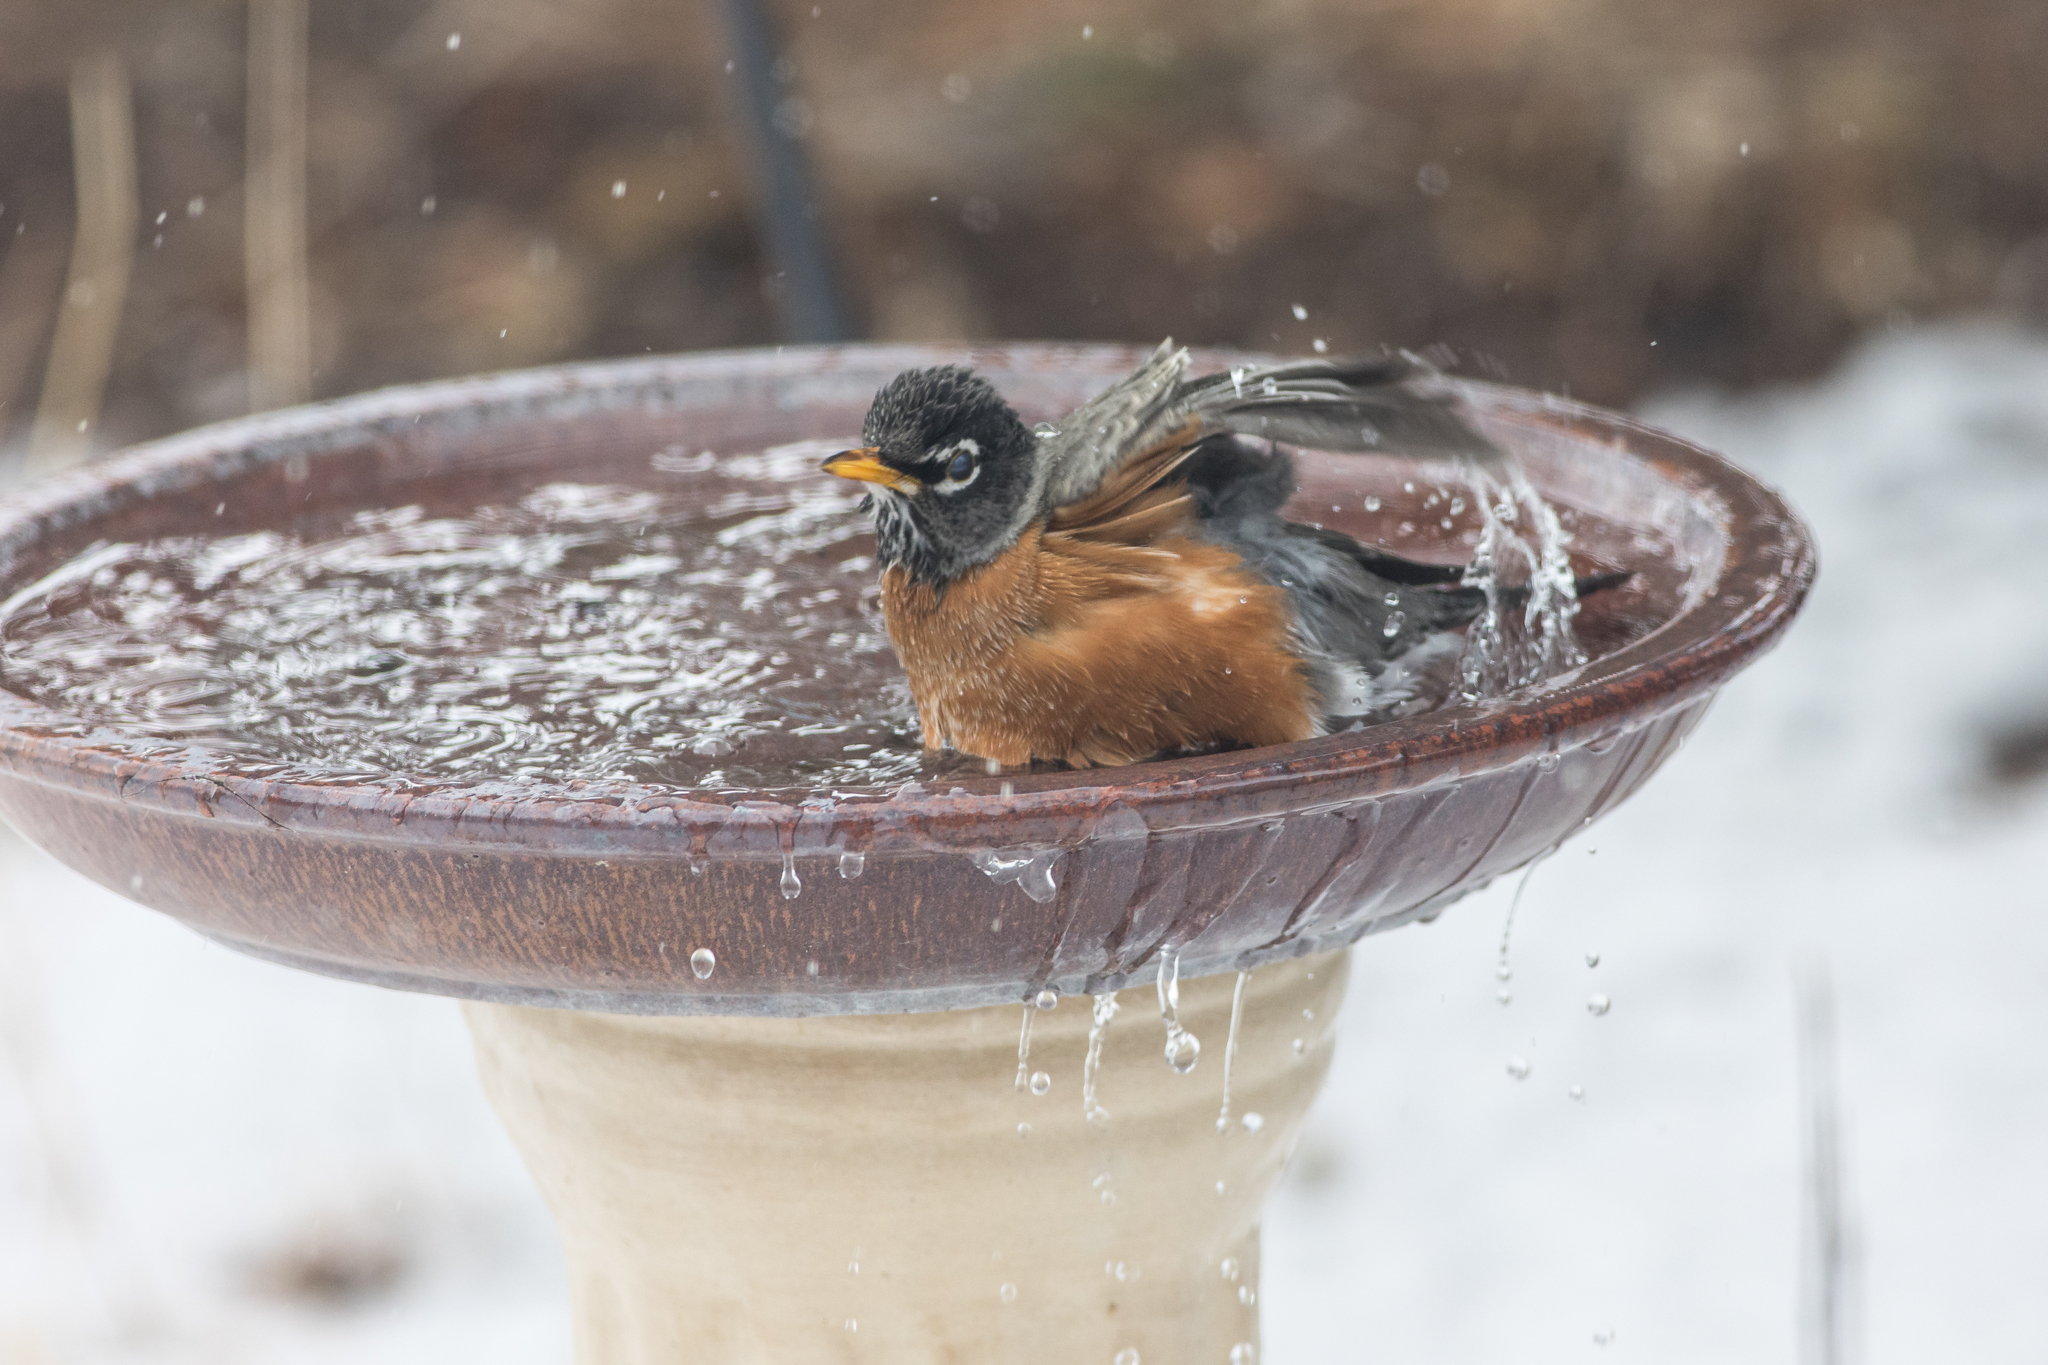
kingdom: Animalia
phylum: Chordata
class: Aves
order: Passeriformes
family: Turdidae
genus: Turdus
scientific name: Turdus migratorius
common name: American robin
